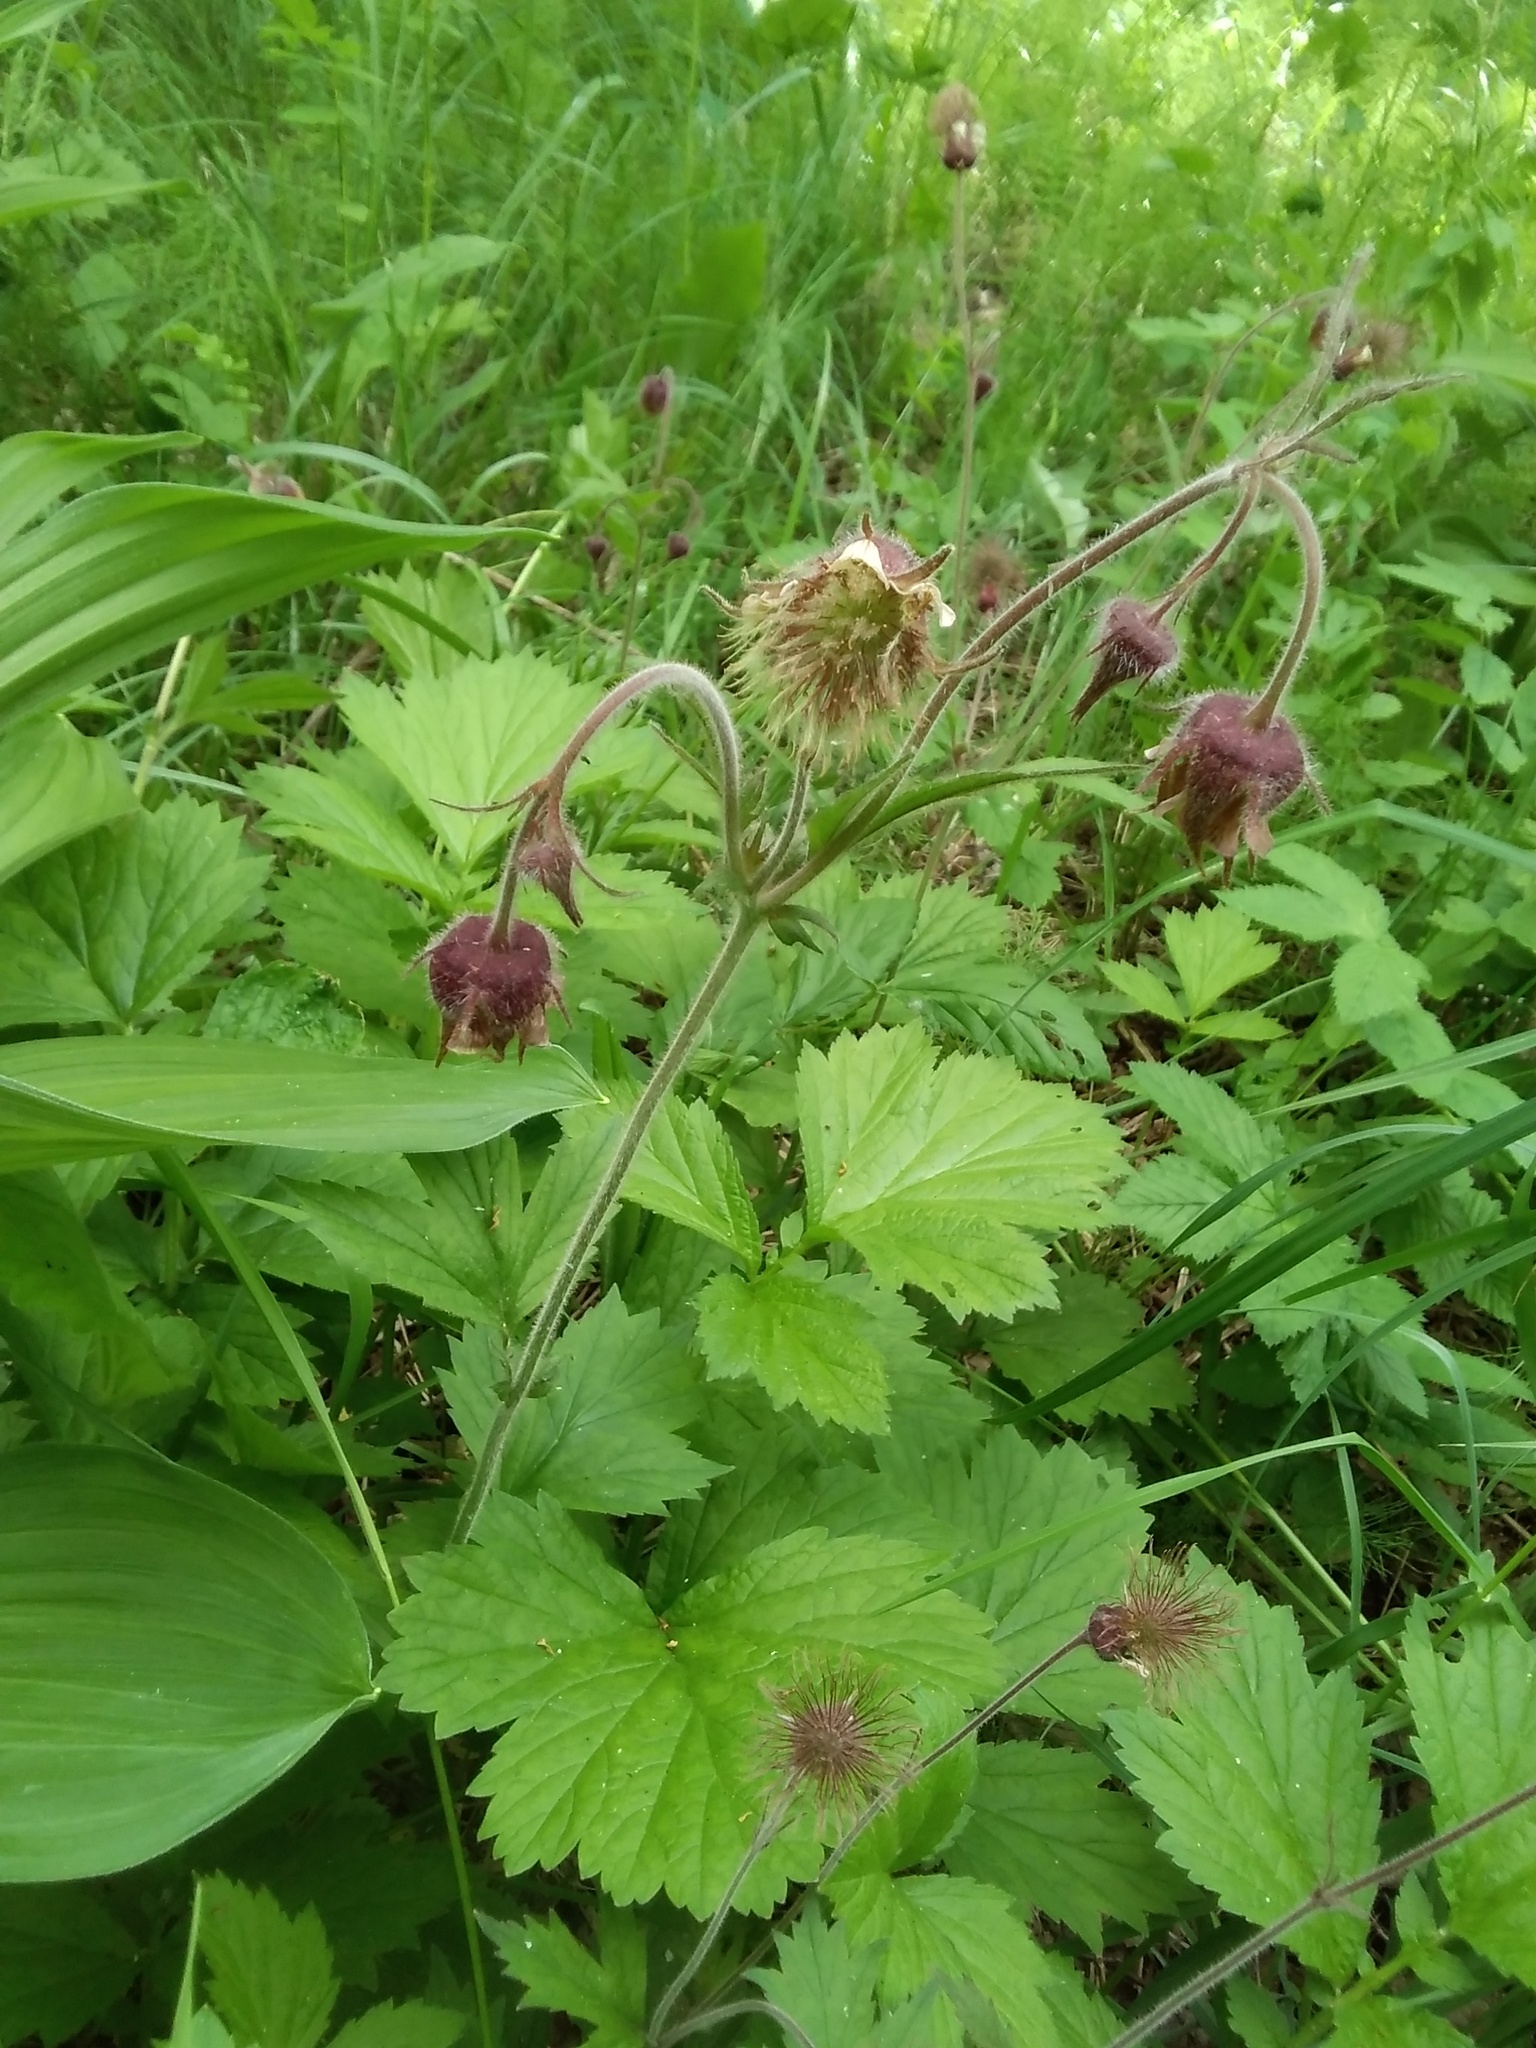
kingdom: Plantae
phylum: Tracheophyta
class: Magnoliopsida
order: Rosales
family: Rosaceae
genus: Geum
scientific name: Geum rivale
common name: Water avens
